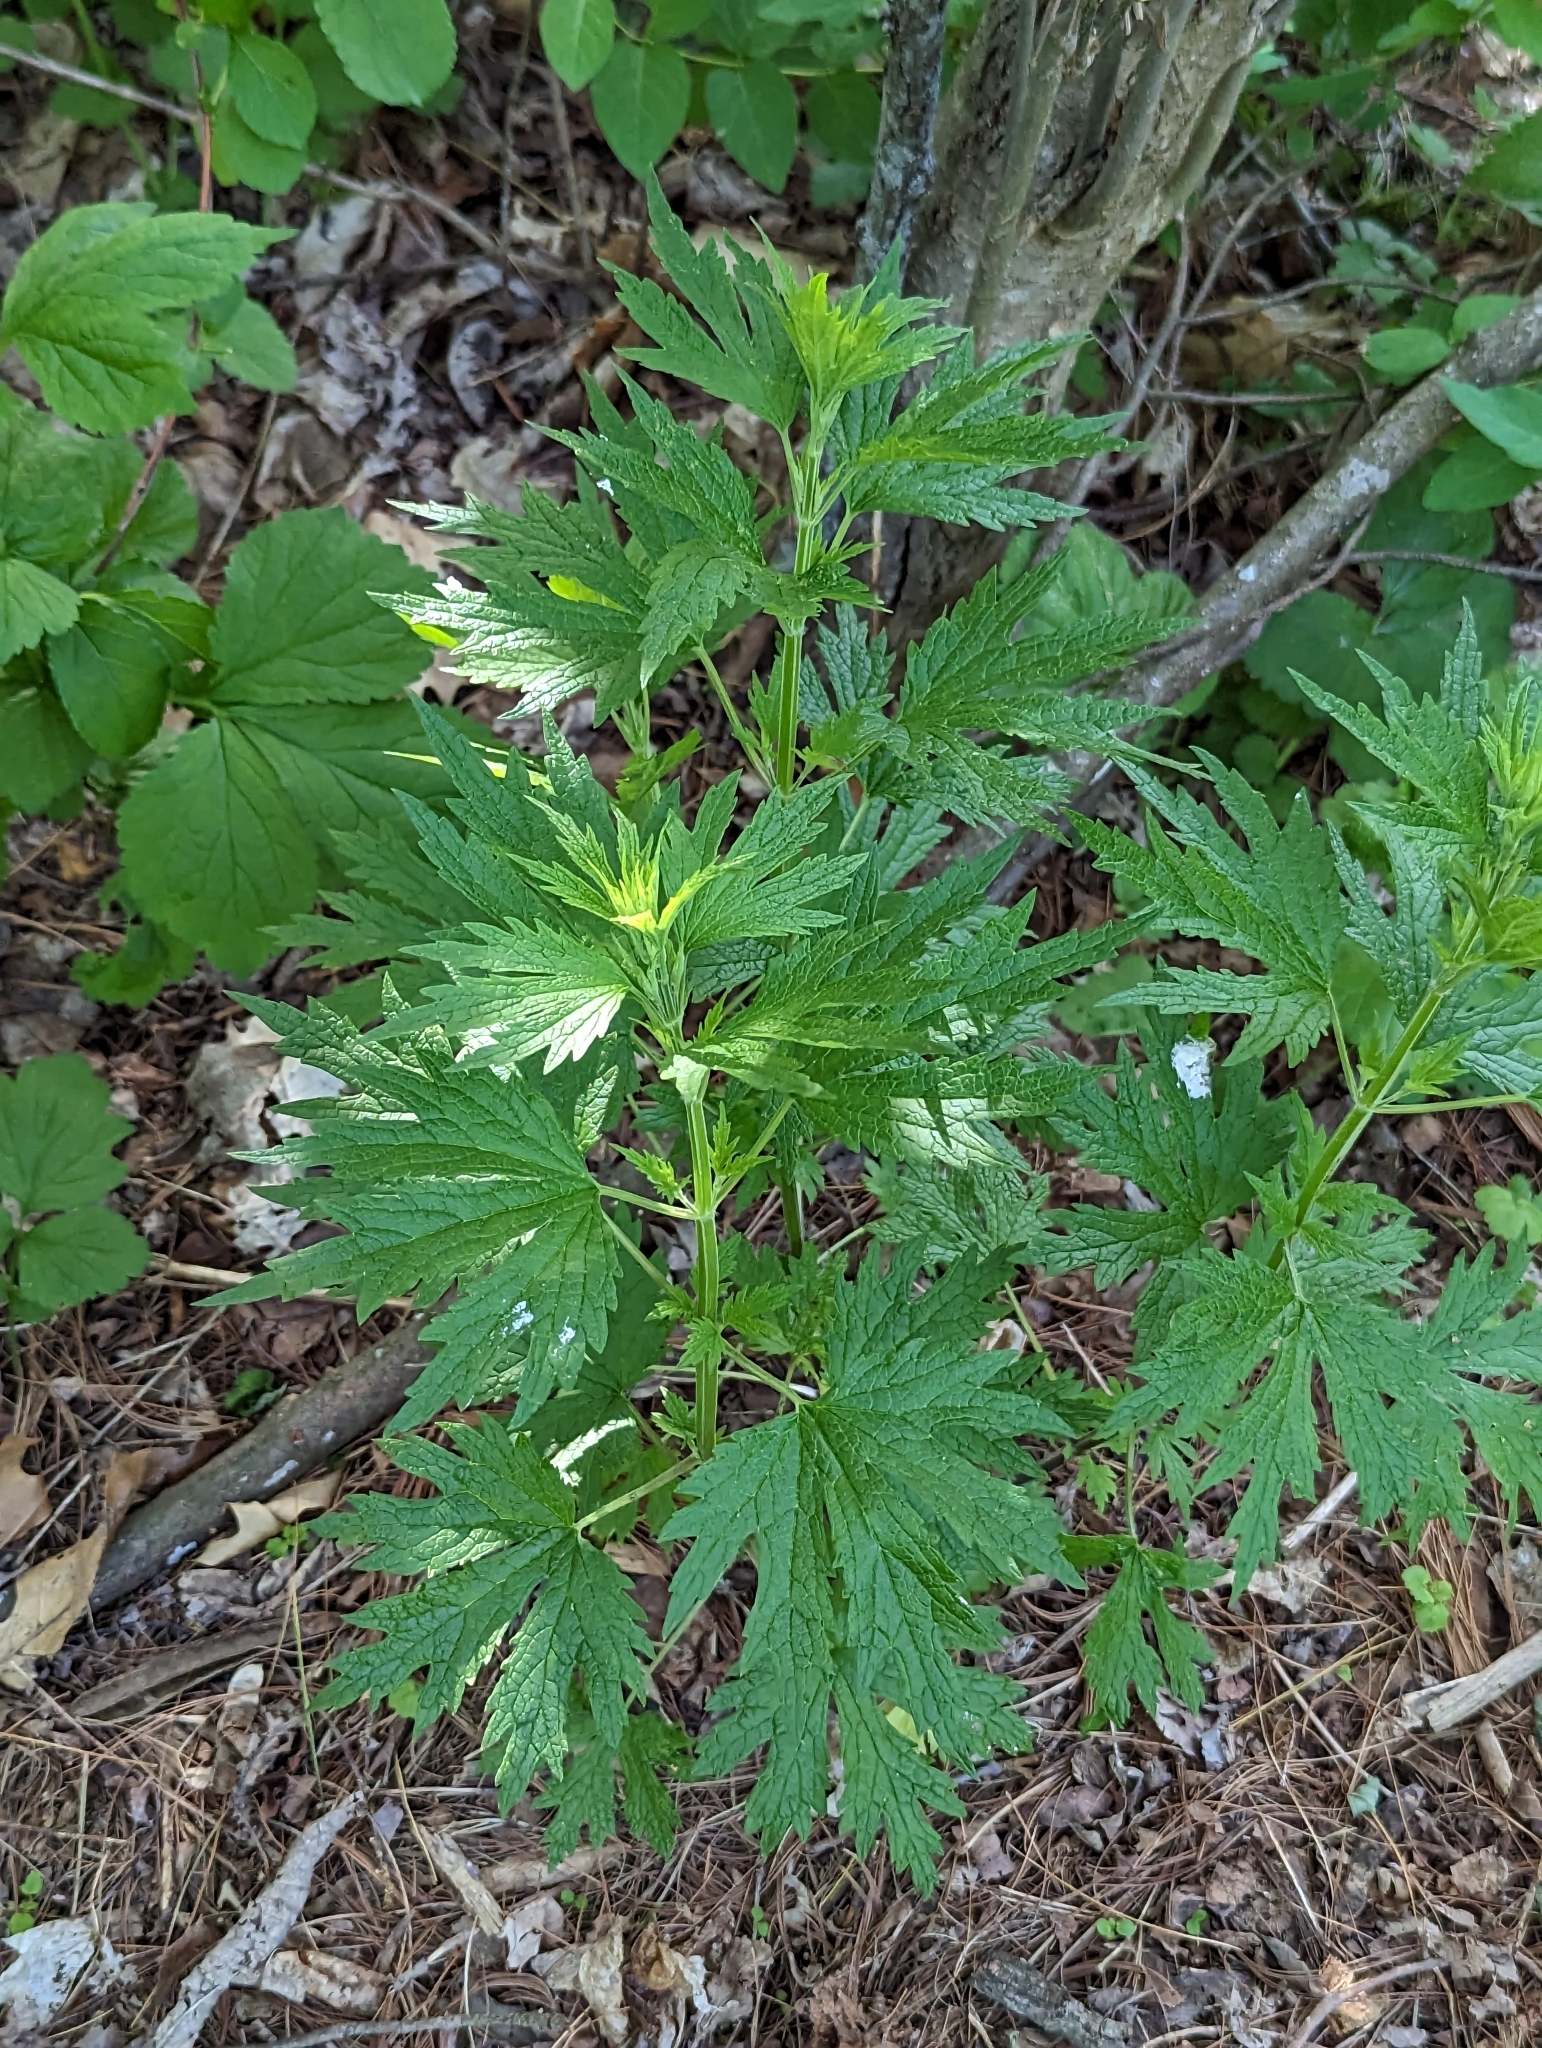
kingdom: Plantae
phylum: Tracheophyta
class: Magnoliopsida
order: Lamiales
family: Lamiaceae
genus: Leonurus
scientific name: Leonurus cardiaca
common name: Motherwort
